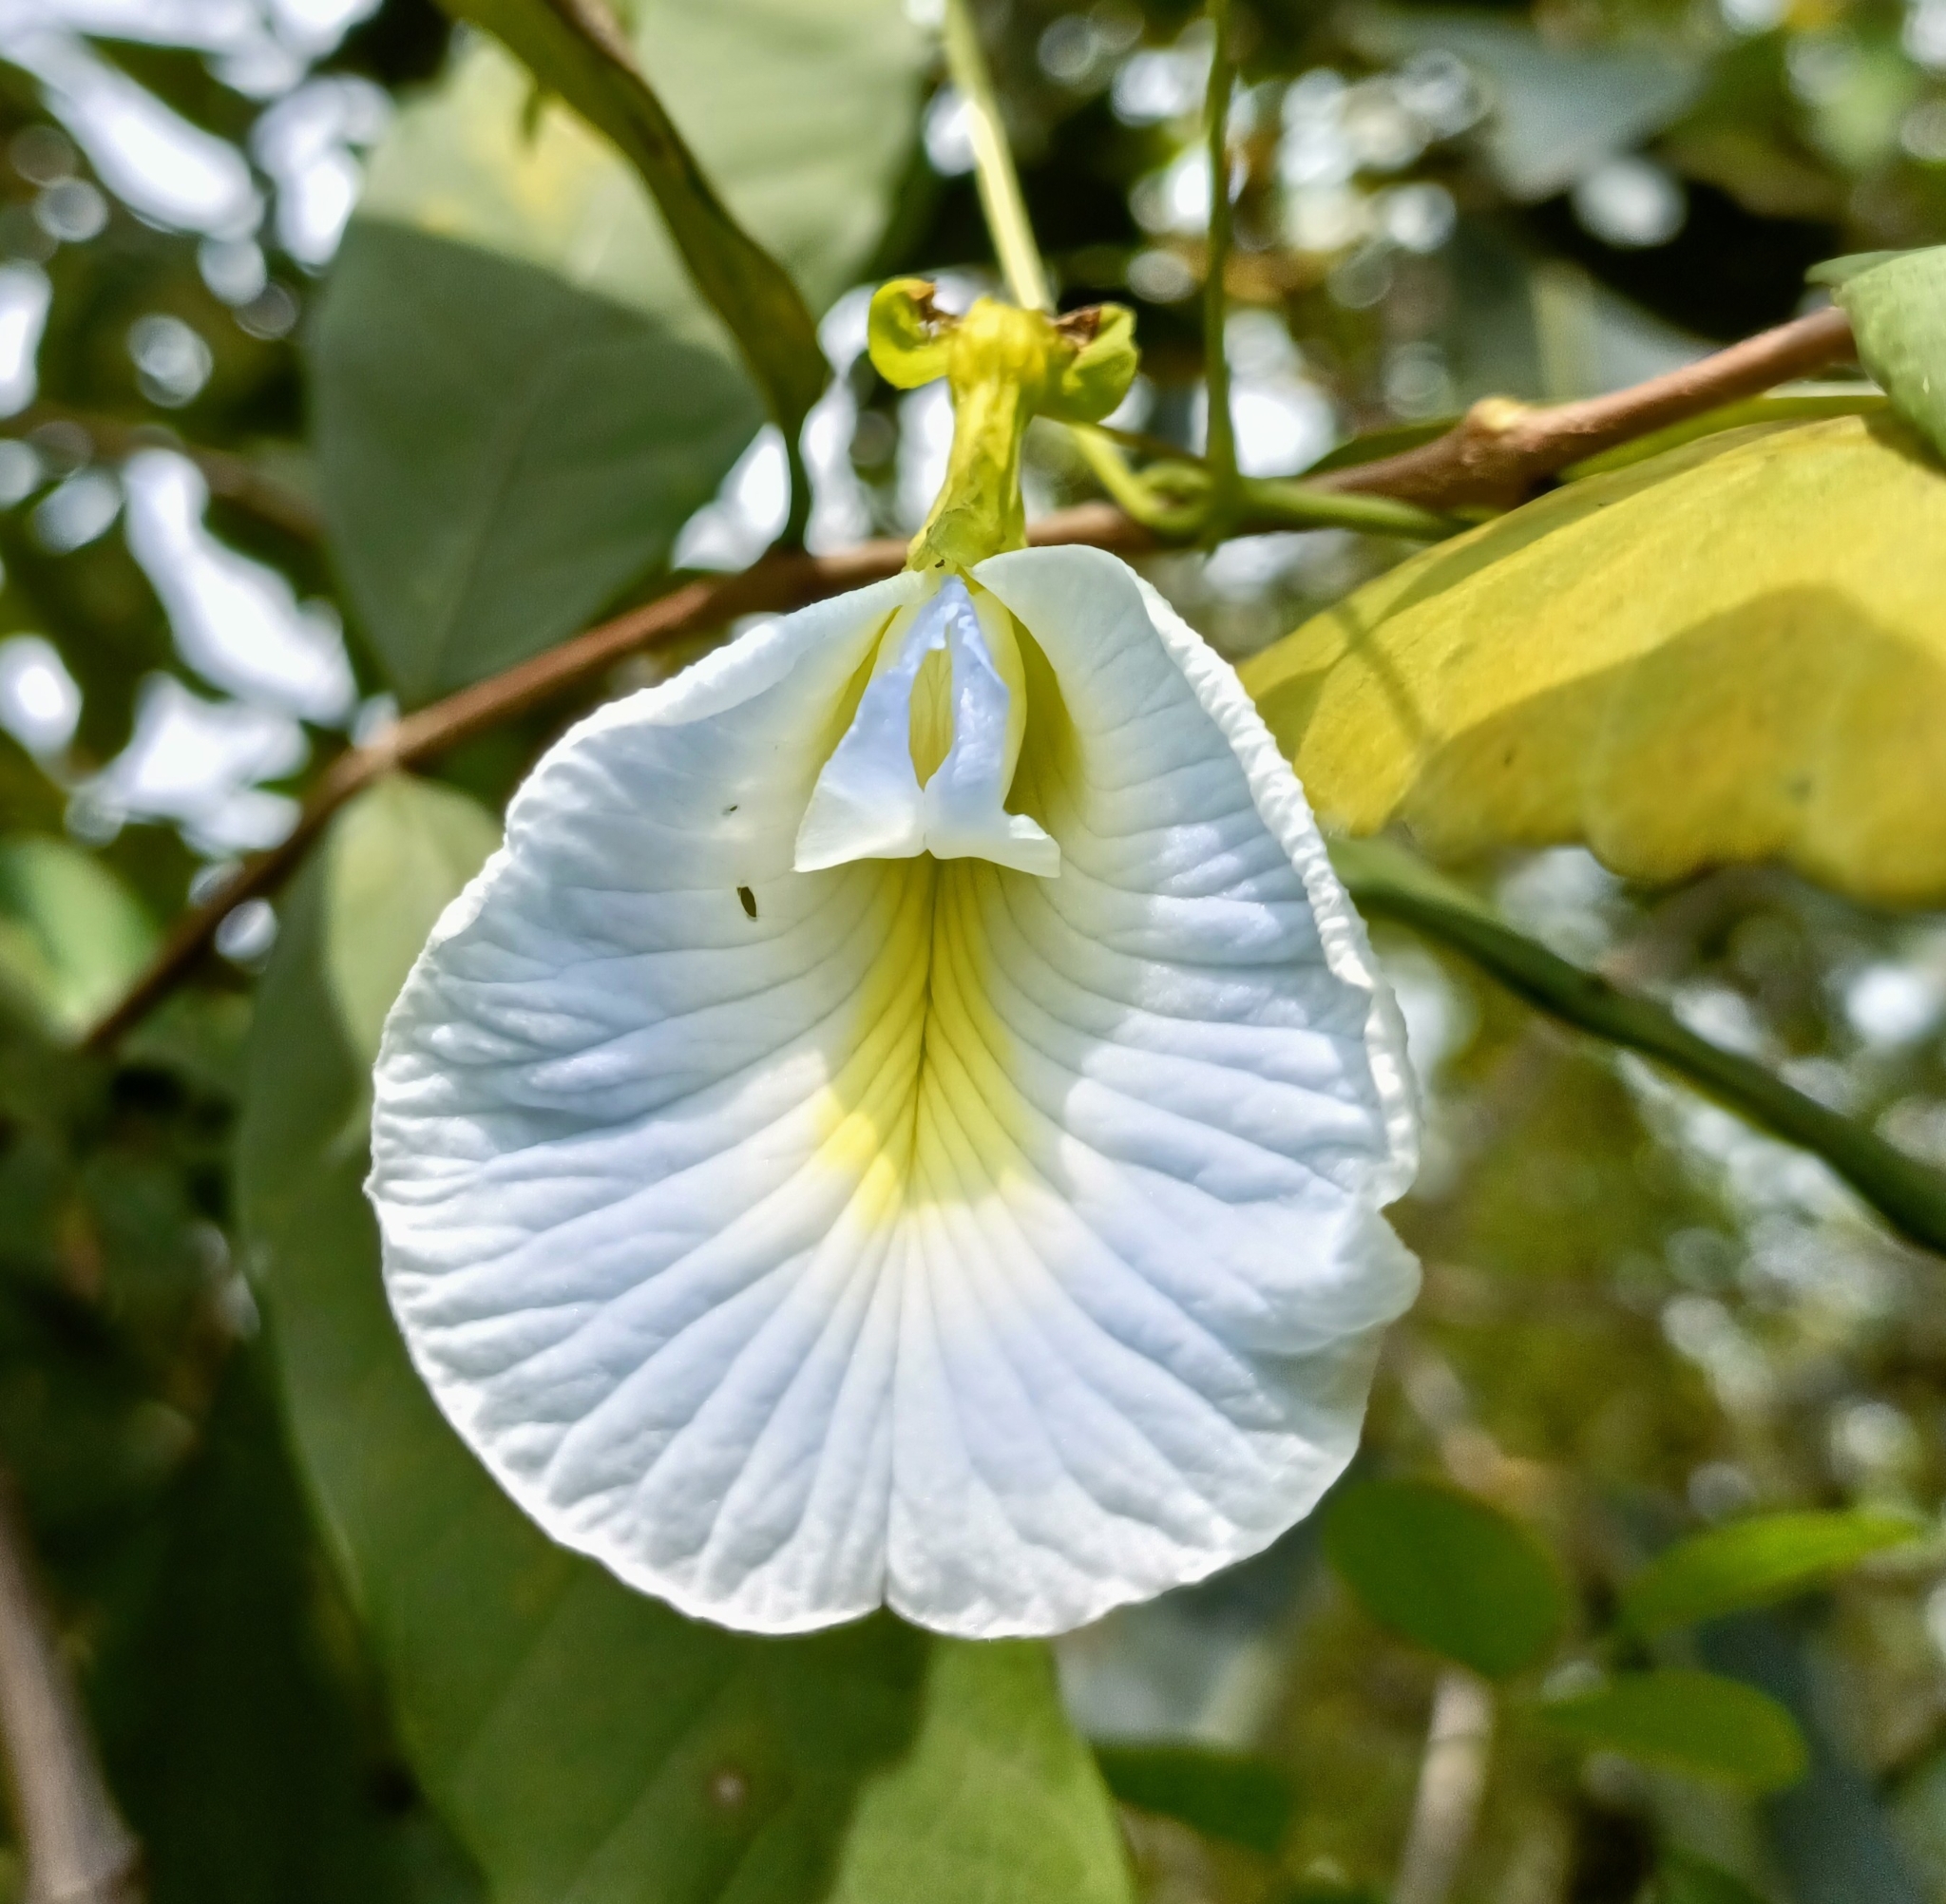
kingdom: Plantae
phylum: Tracheophyta
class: Magnoliopsida
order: Fabales
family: Fabaceae
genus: Clitoria
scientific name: Clitoria ternatea
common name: Asian pigeonwings
